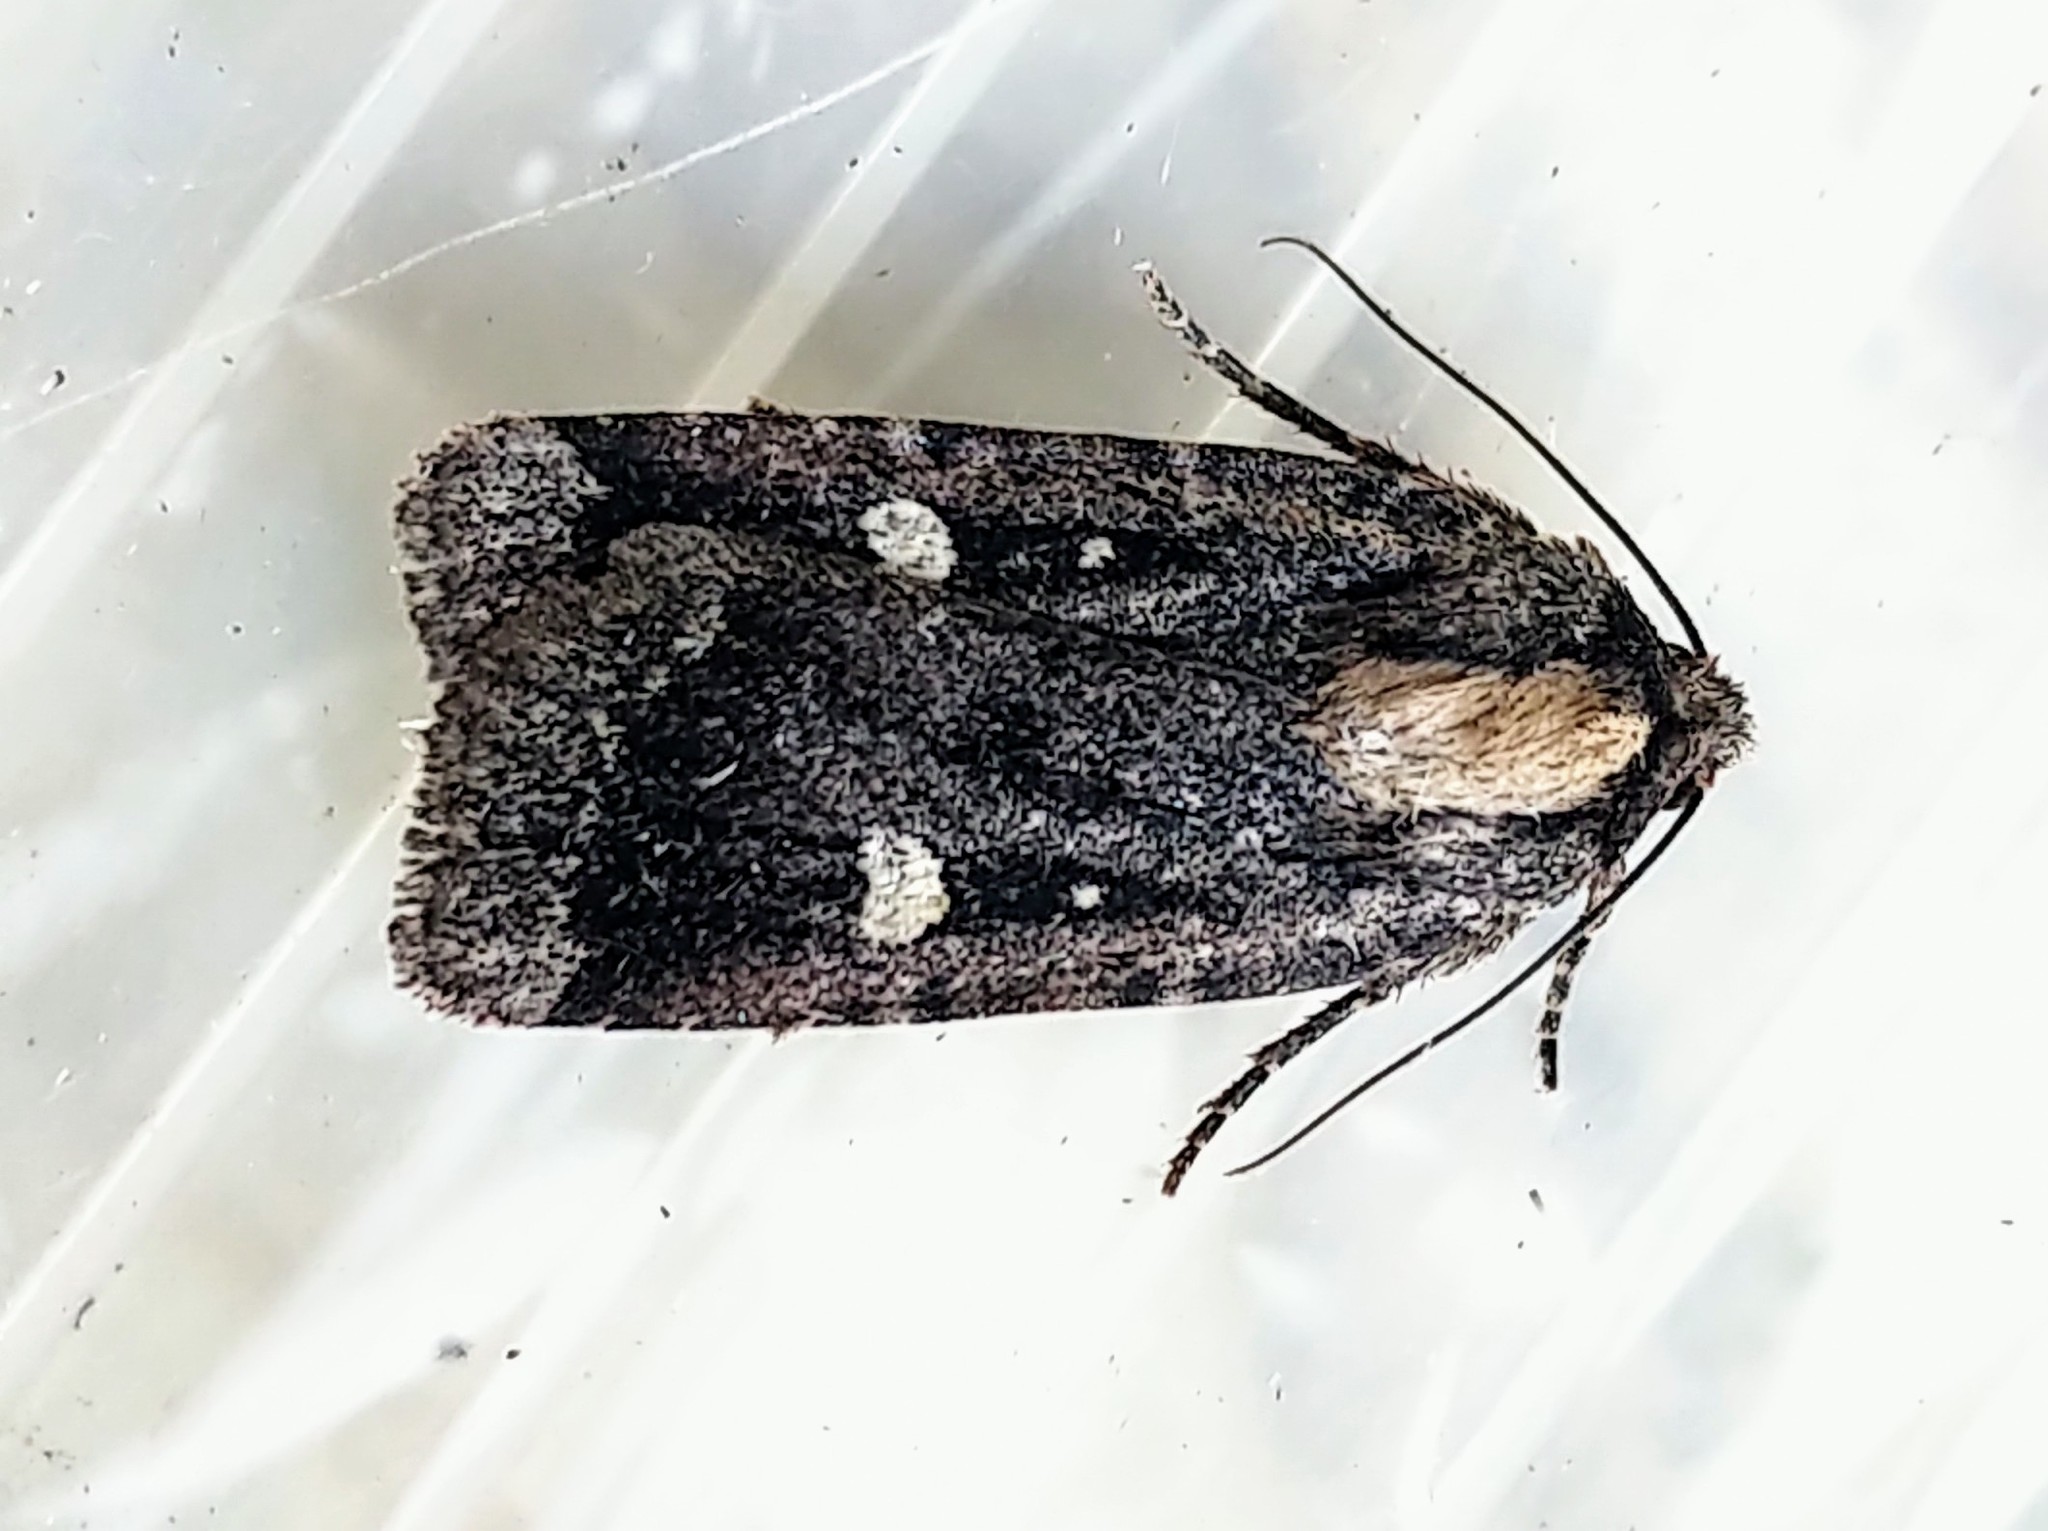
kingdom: Animalia
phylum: Arthropoda
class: Insecta
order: Lepidoptera
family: Noctuidae
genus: Abagrotis
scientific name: Abagrotis mirabilis
